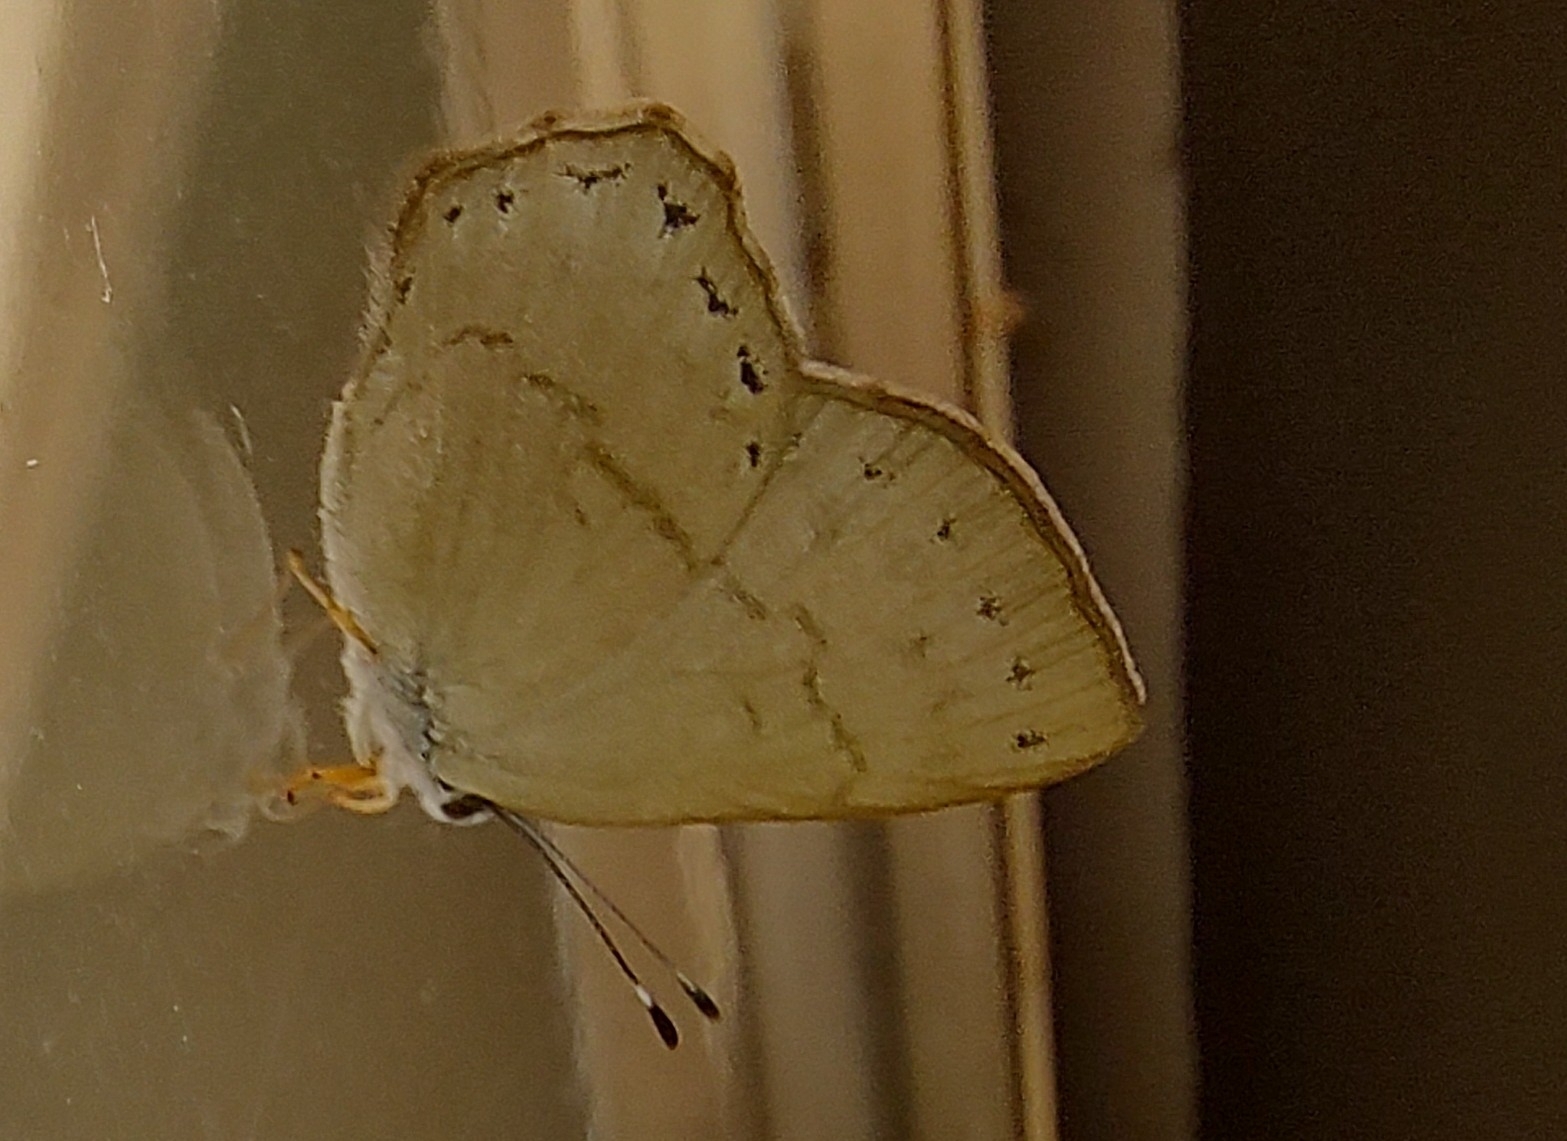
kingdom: Animalia
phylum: Arthropoda
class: Insecta
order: Lepidoptera
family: Lycaenidae
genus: Euselasia
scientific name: Euselasia euploea
